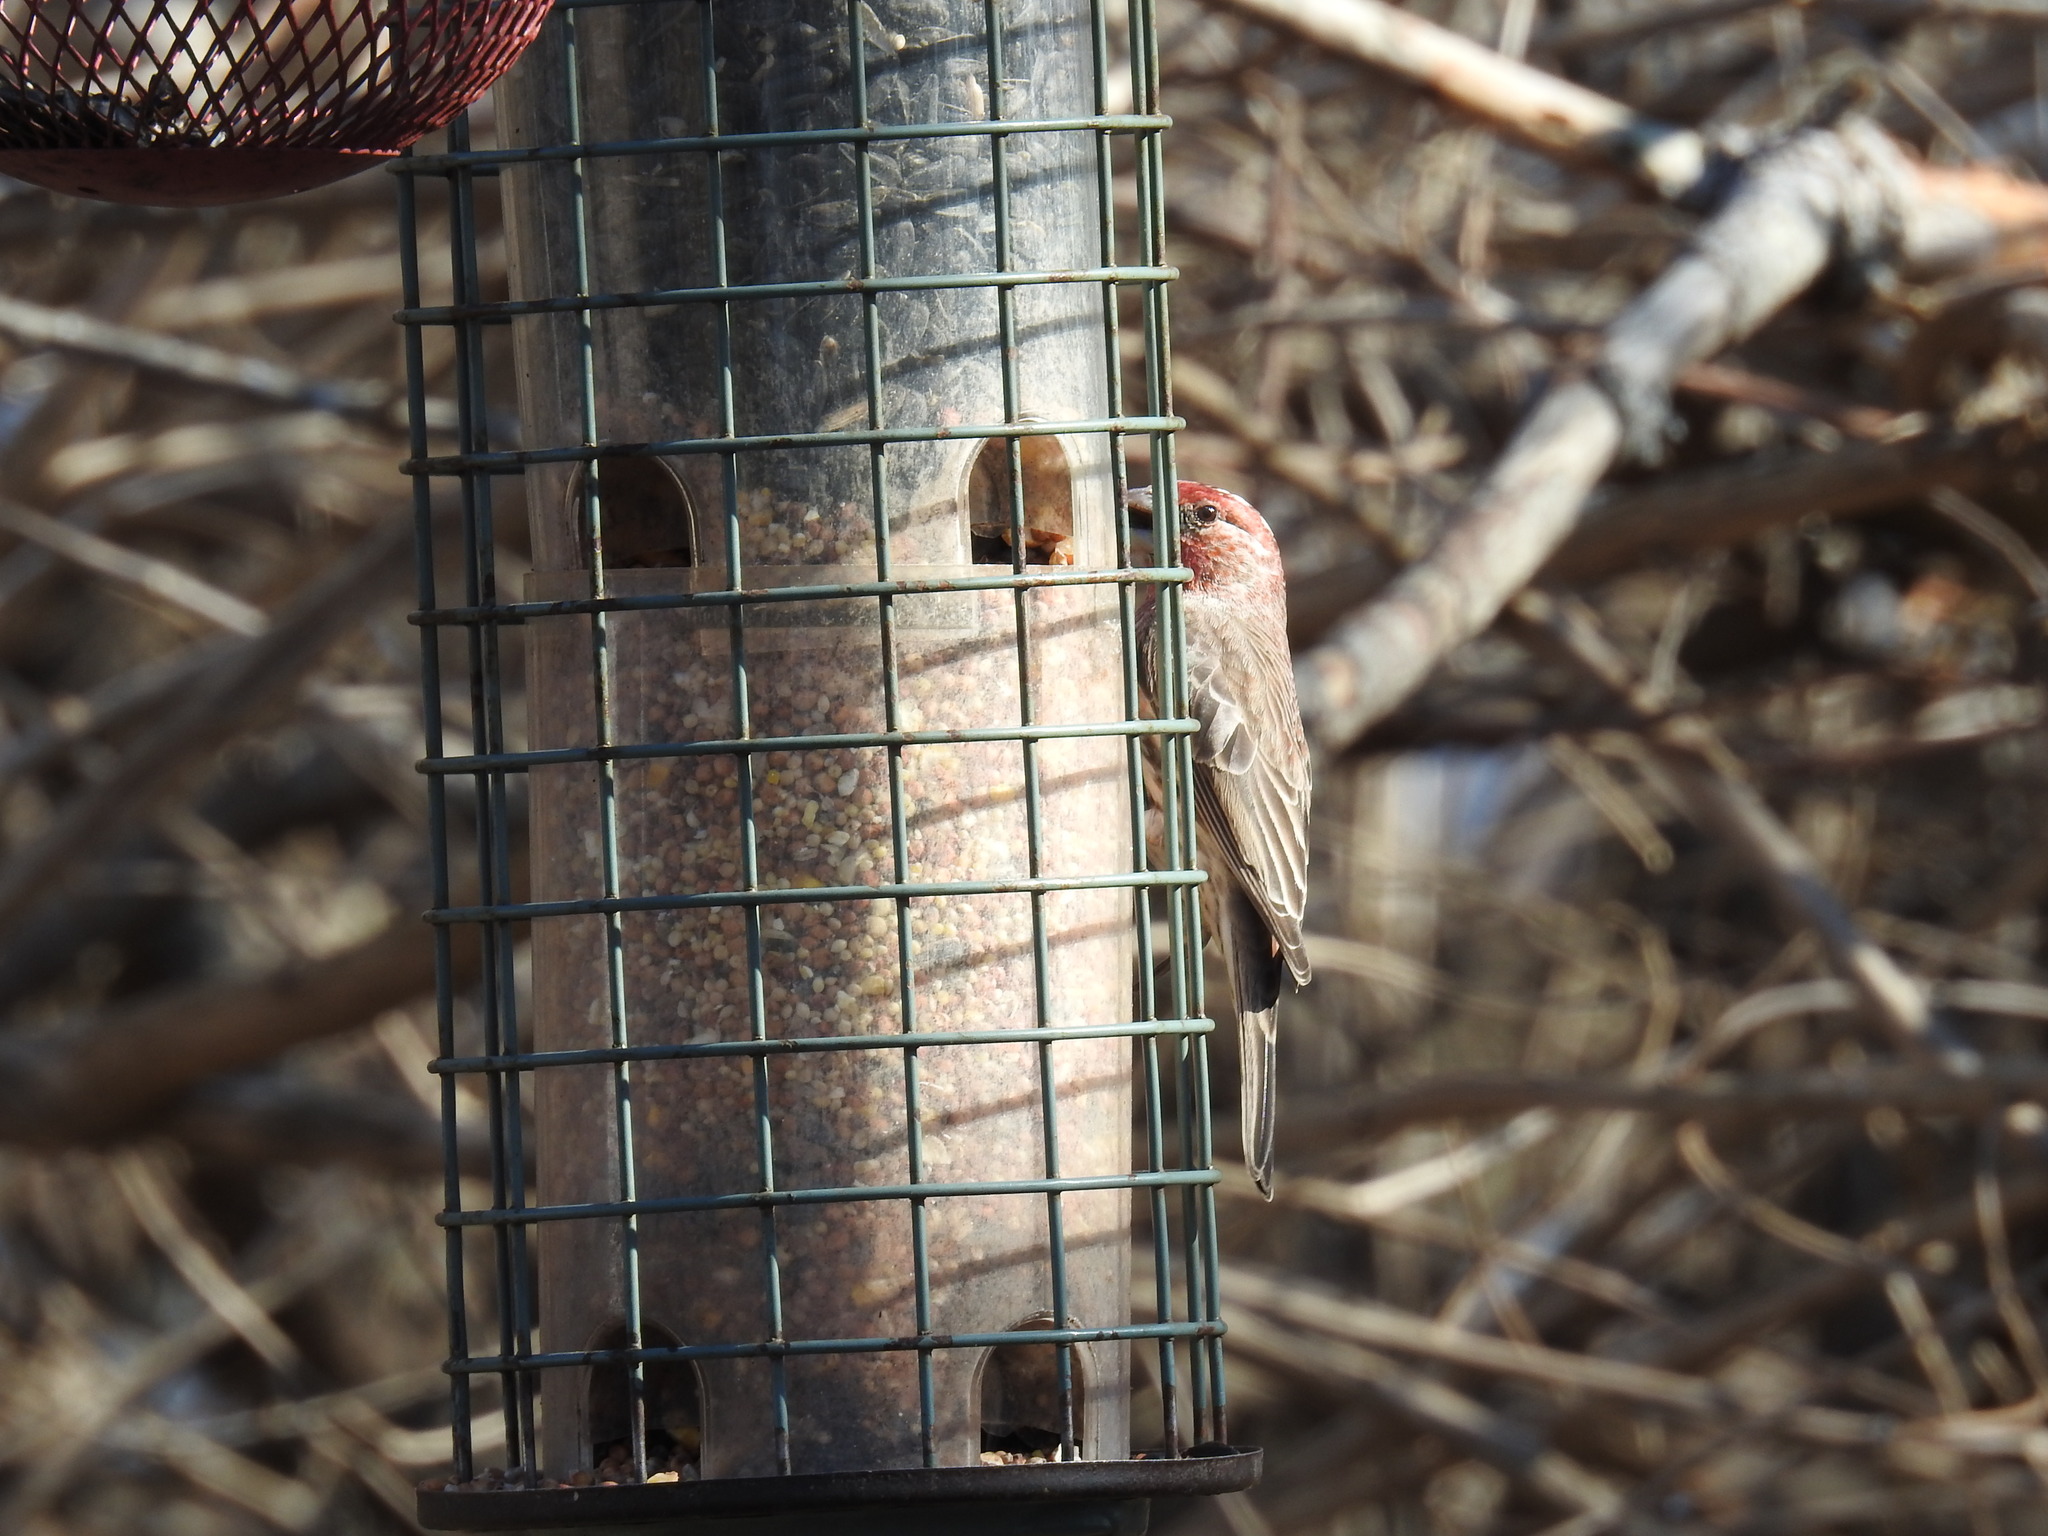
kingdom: Animalia
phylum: Chordata
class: Aves
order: Passeriformes
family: Fringillidae
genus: Haemorhous
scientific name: Haemorhous mexicanus
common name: House finch
